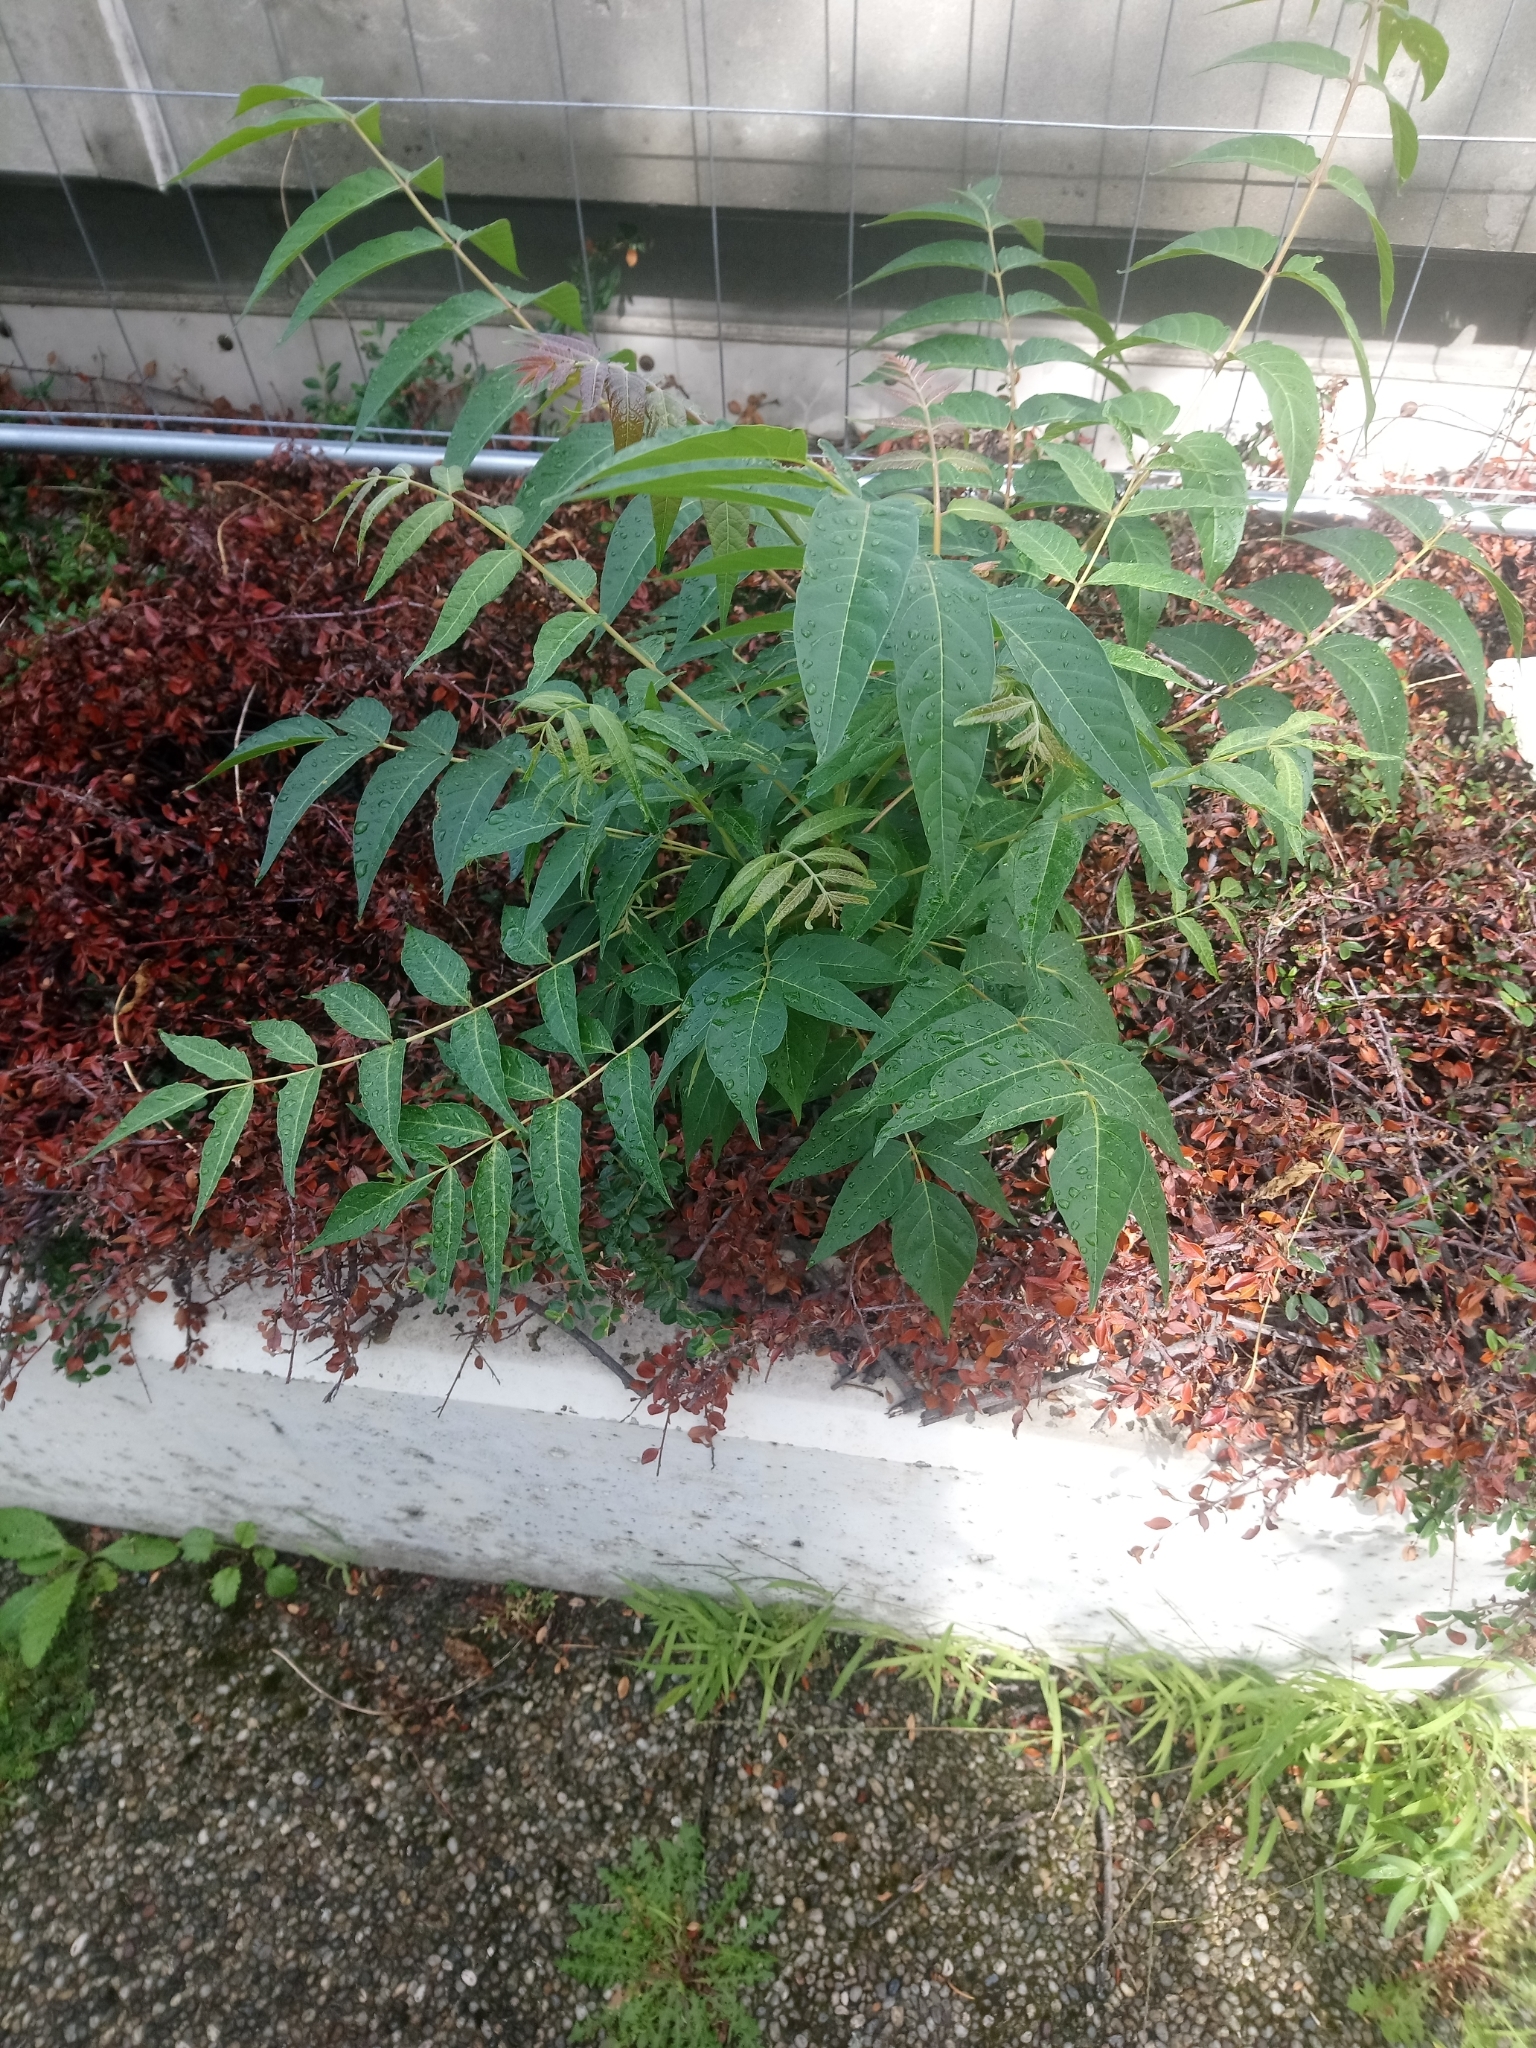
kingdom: Plantae
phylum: Tracheophyta
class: Magnoliopsida
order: Sapindales
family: Simaroubaceae
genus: Ailanthus
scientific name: Ailanthus altissima
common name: Tree-of-heaven
